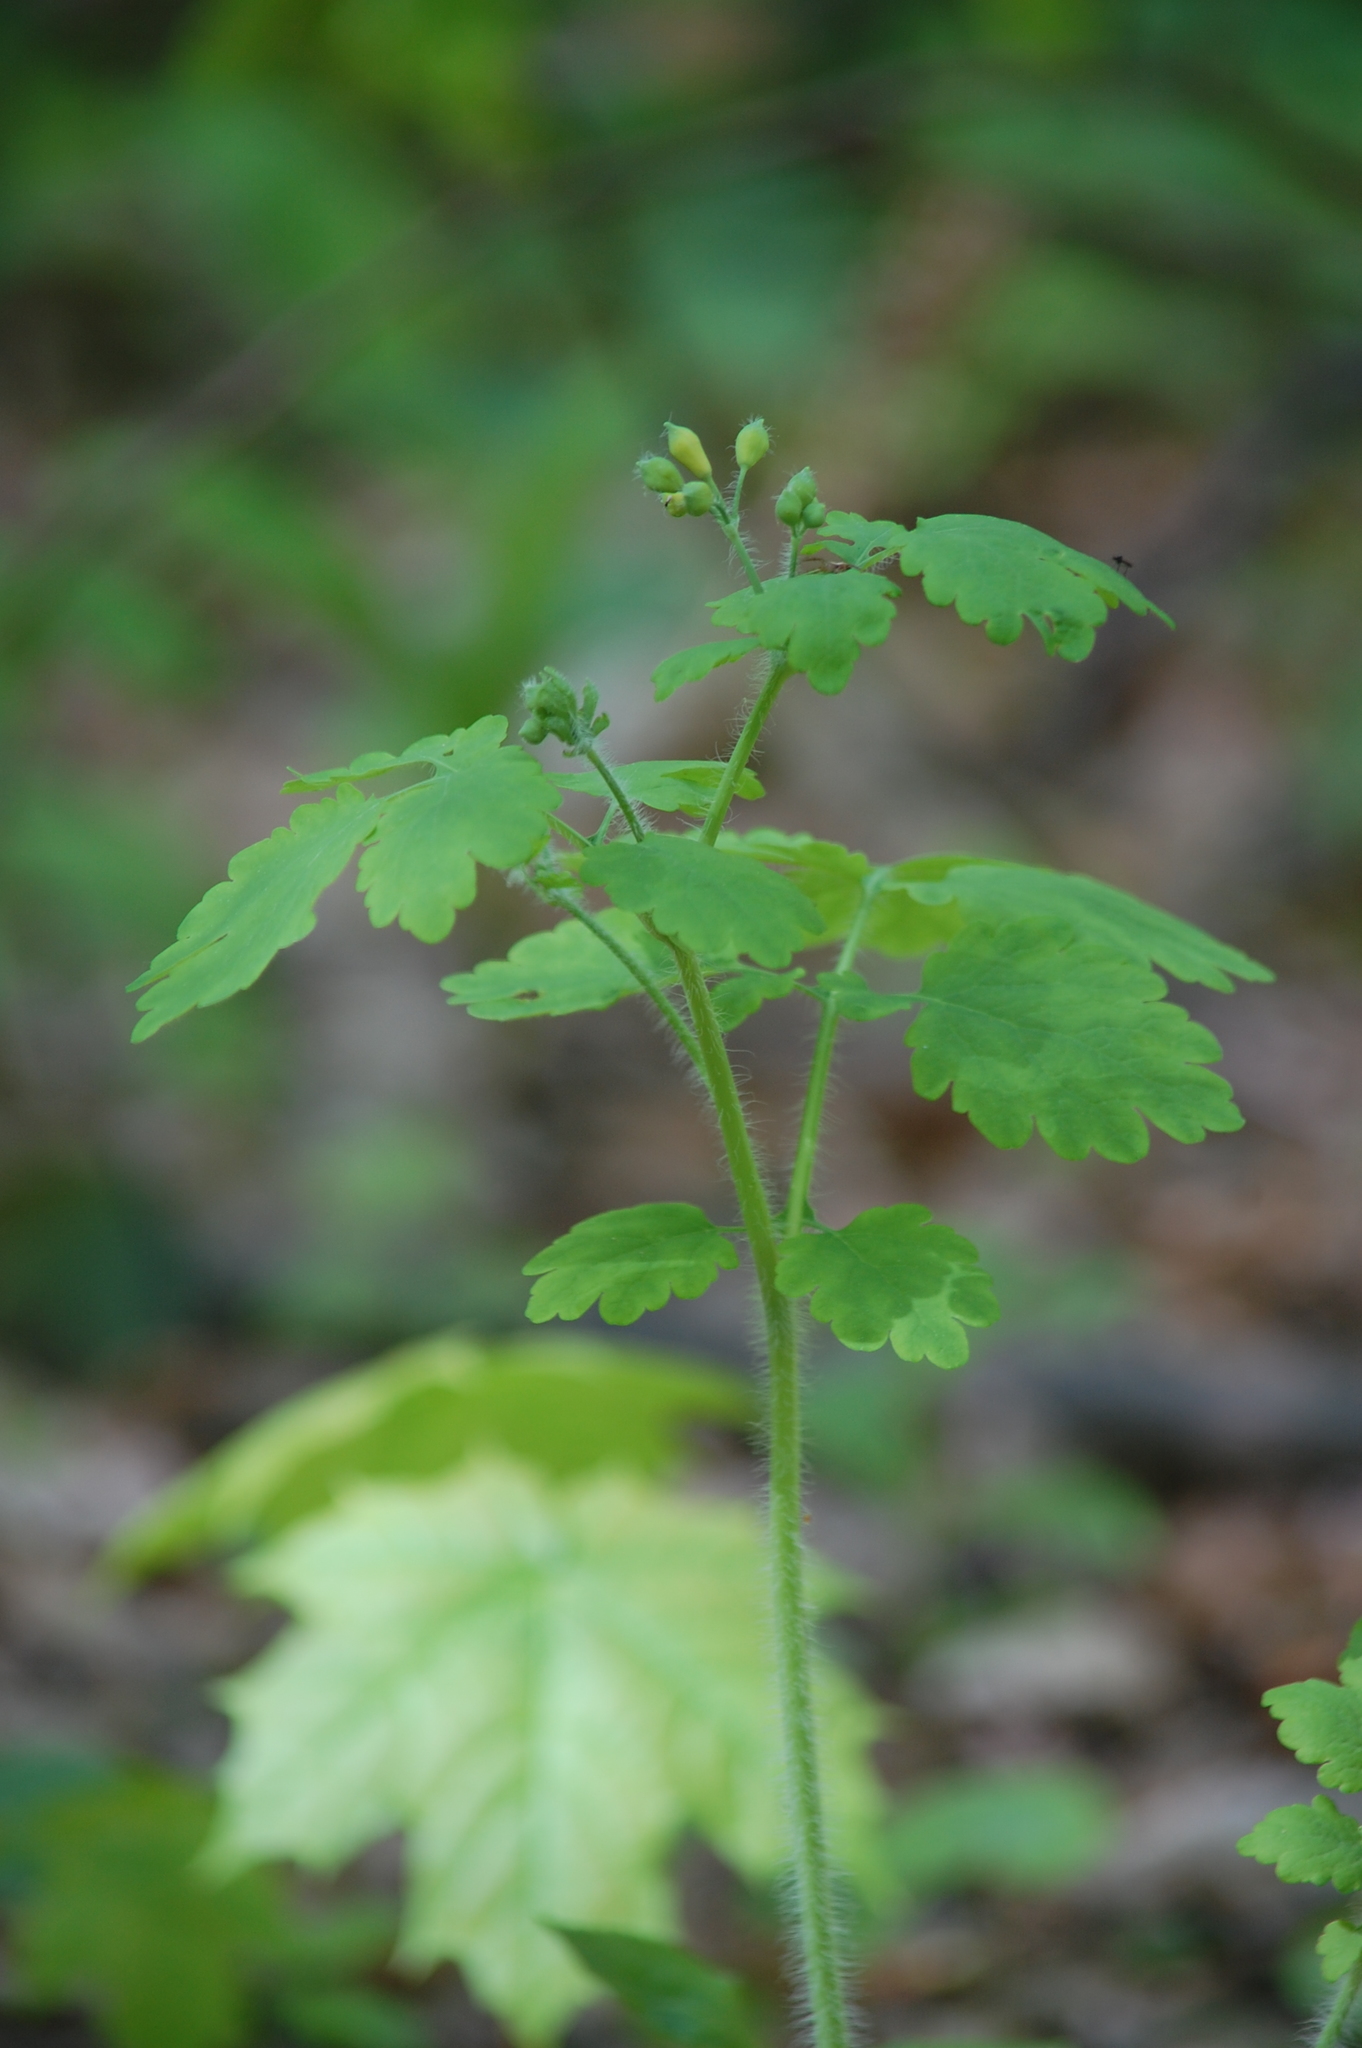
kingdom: Plantae
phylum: Tracheophyta
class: Magnoliopsida
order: Ranunculales
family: Papaveraceae
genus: Chelidonium
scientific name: Chelidonium majus
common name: Greater celandine
